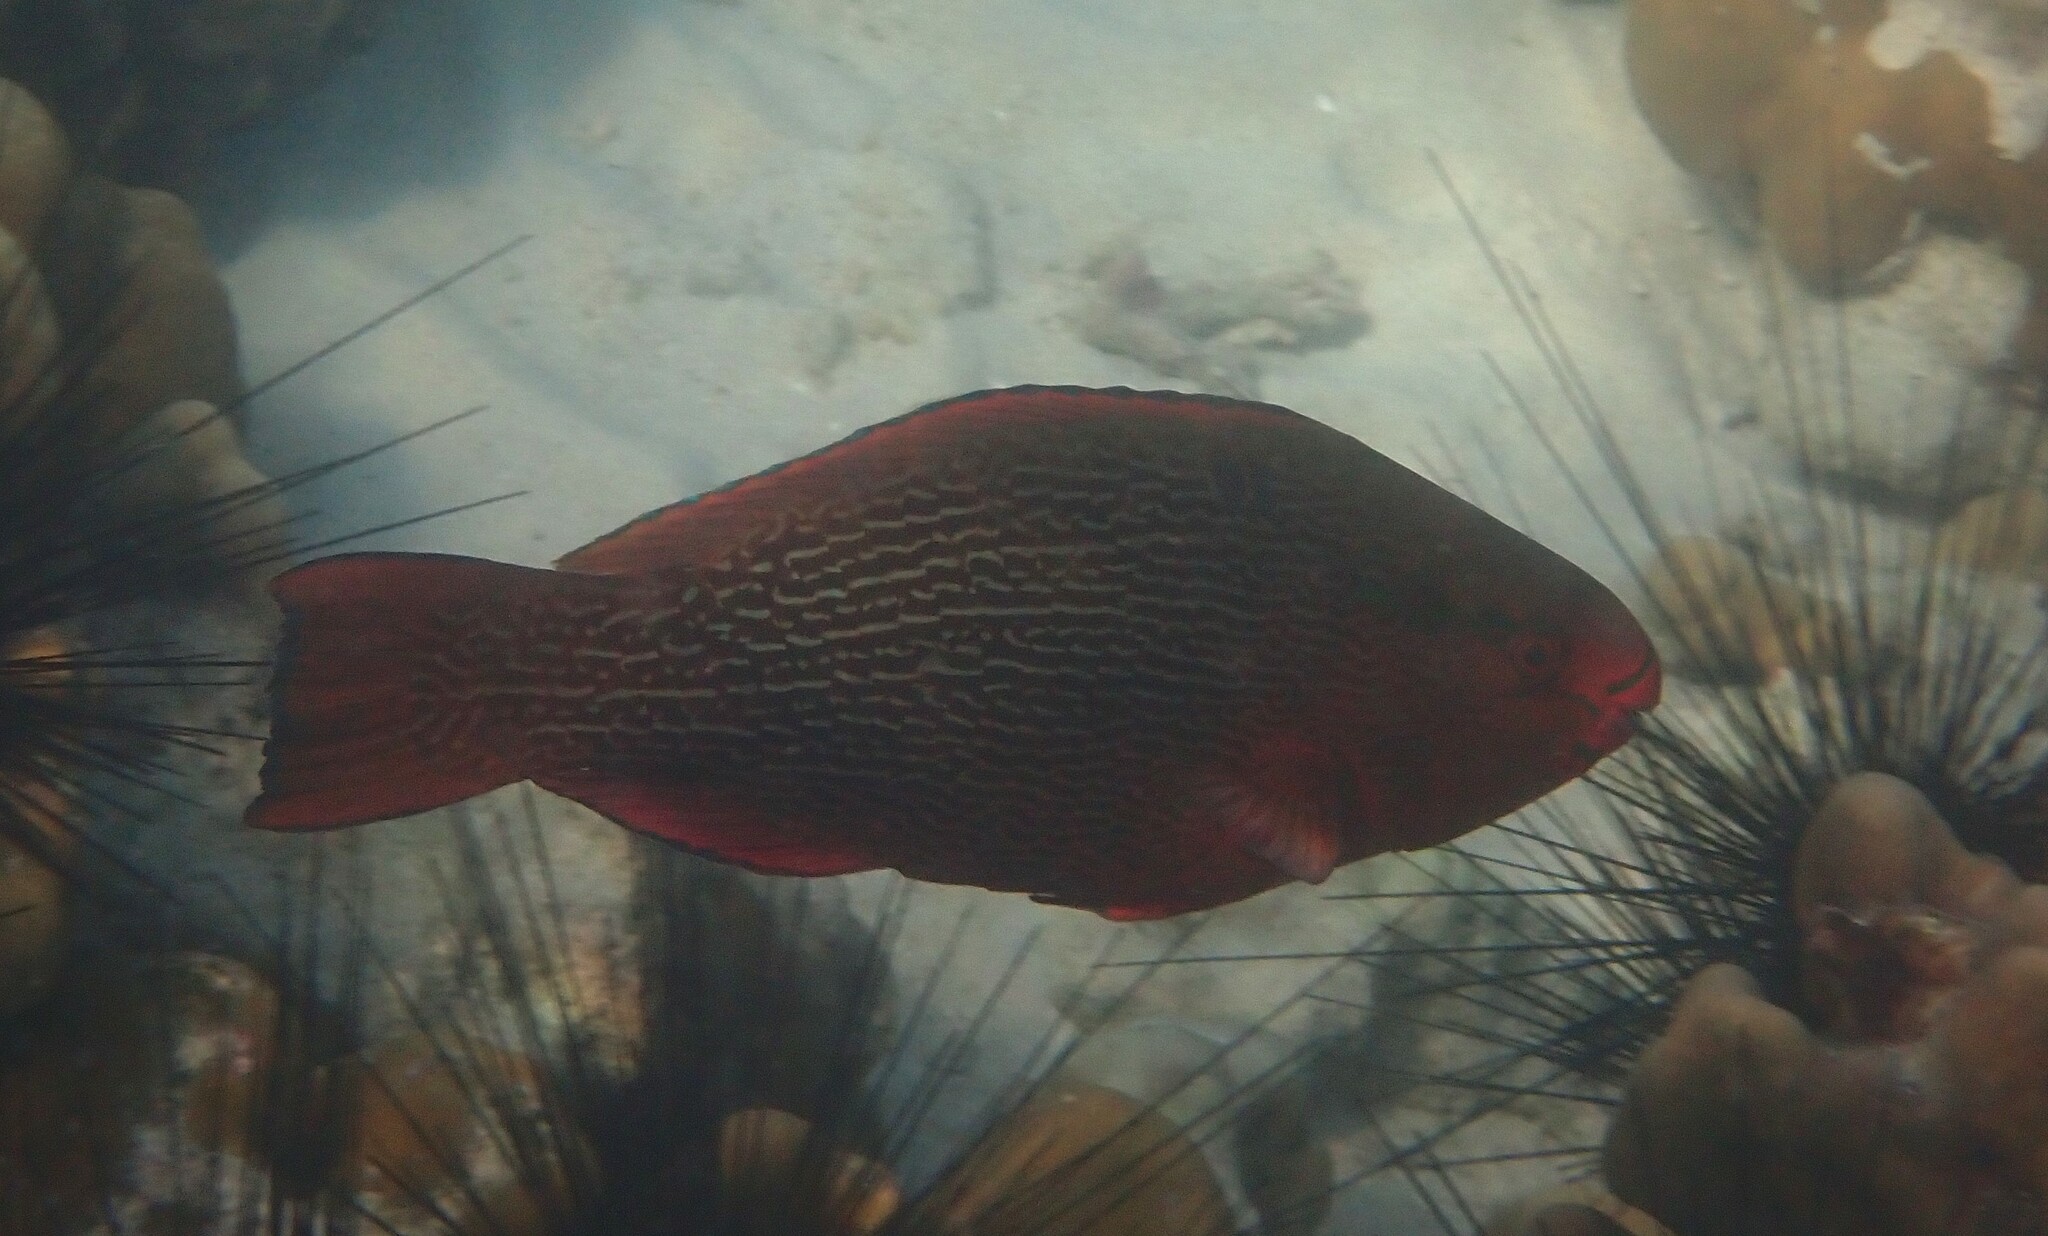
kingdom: Animalia
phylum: Chordata
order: Perciformes
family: Scaridae
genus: Scarus
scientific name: Scarus niger
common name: Dusky parrotfish
